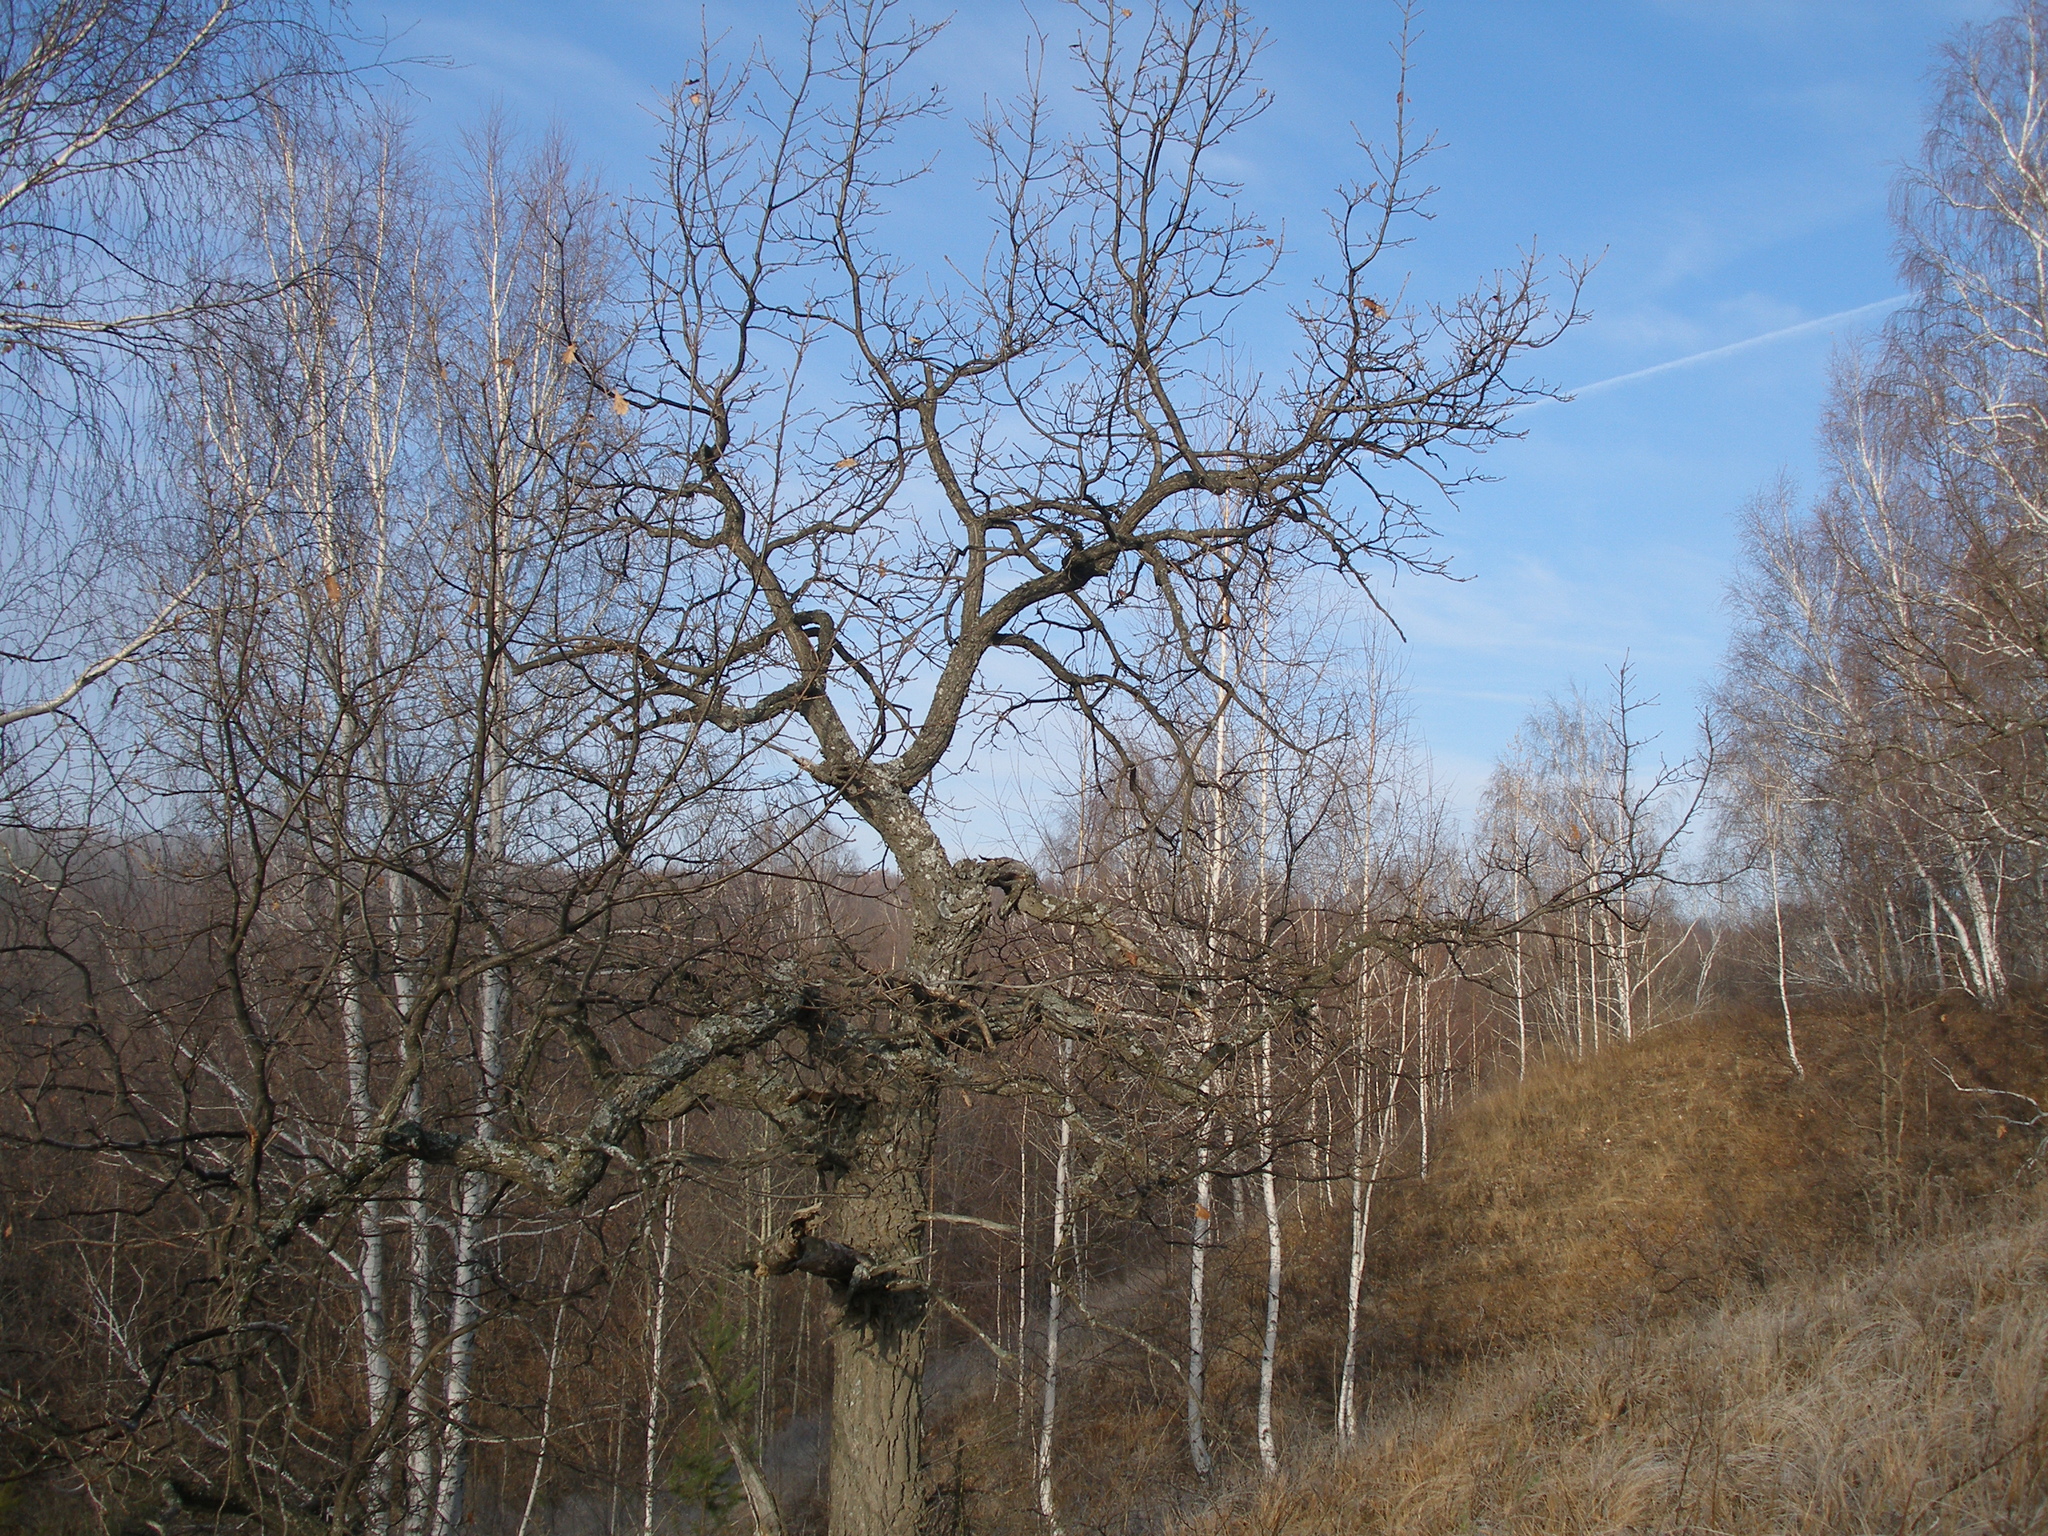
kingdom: Plantae
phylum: Tracheophyta
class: Magnoliopsida
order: Fagales
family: Fagaceae
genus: Quercus
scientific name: Quercus robur
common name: Pedunculate oak
